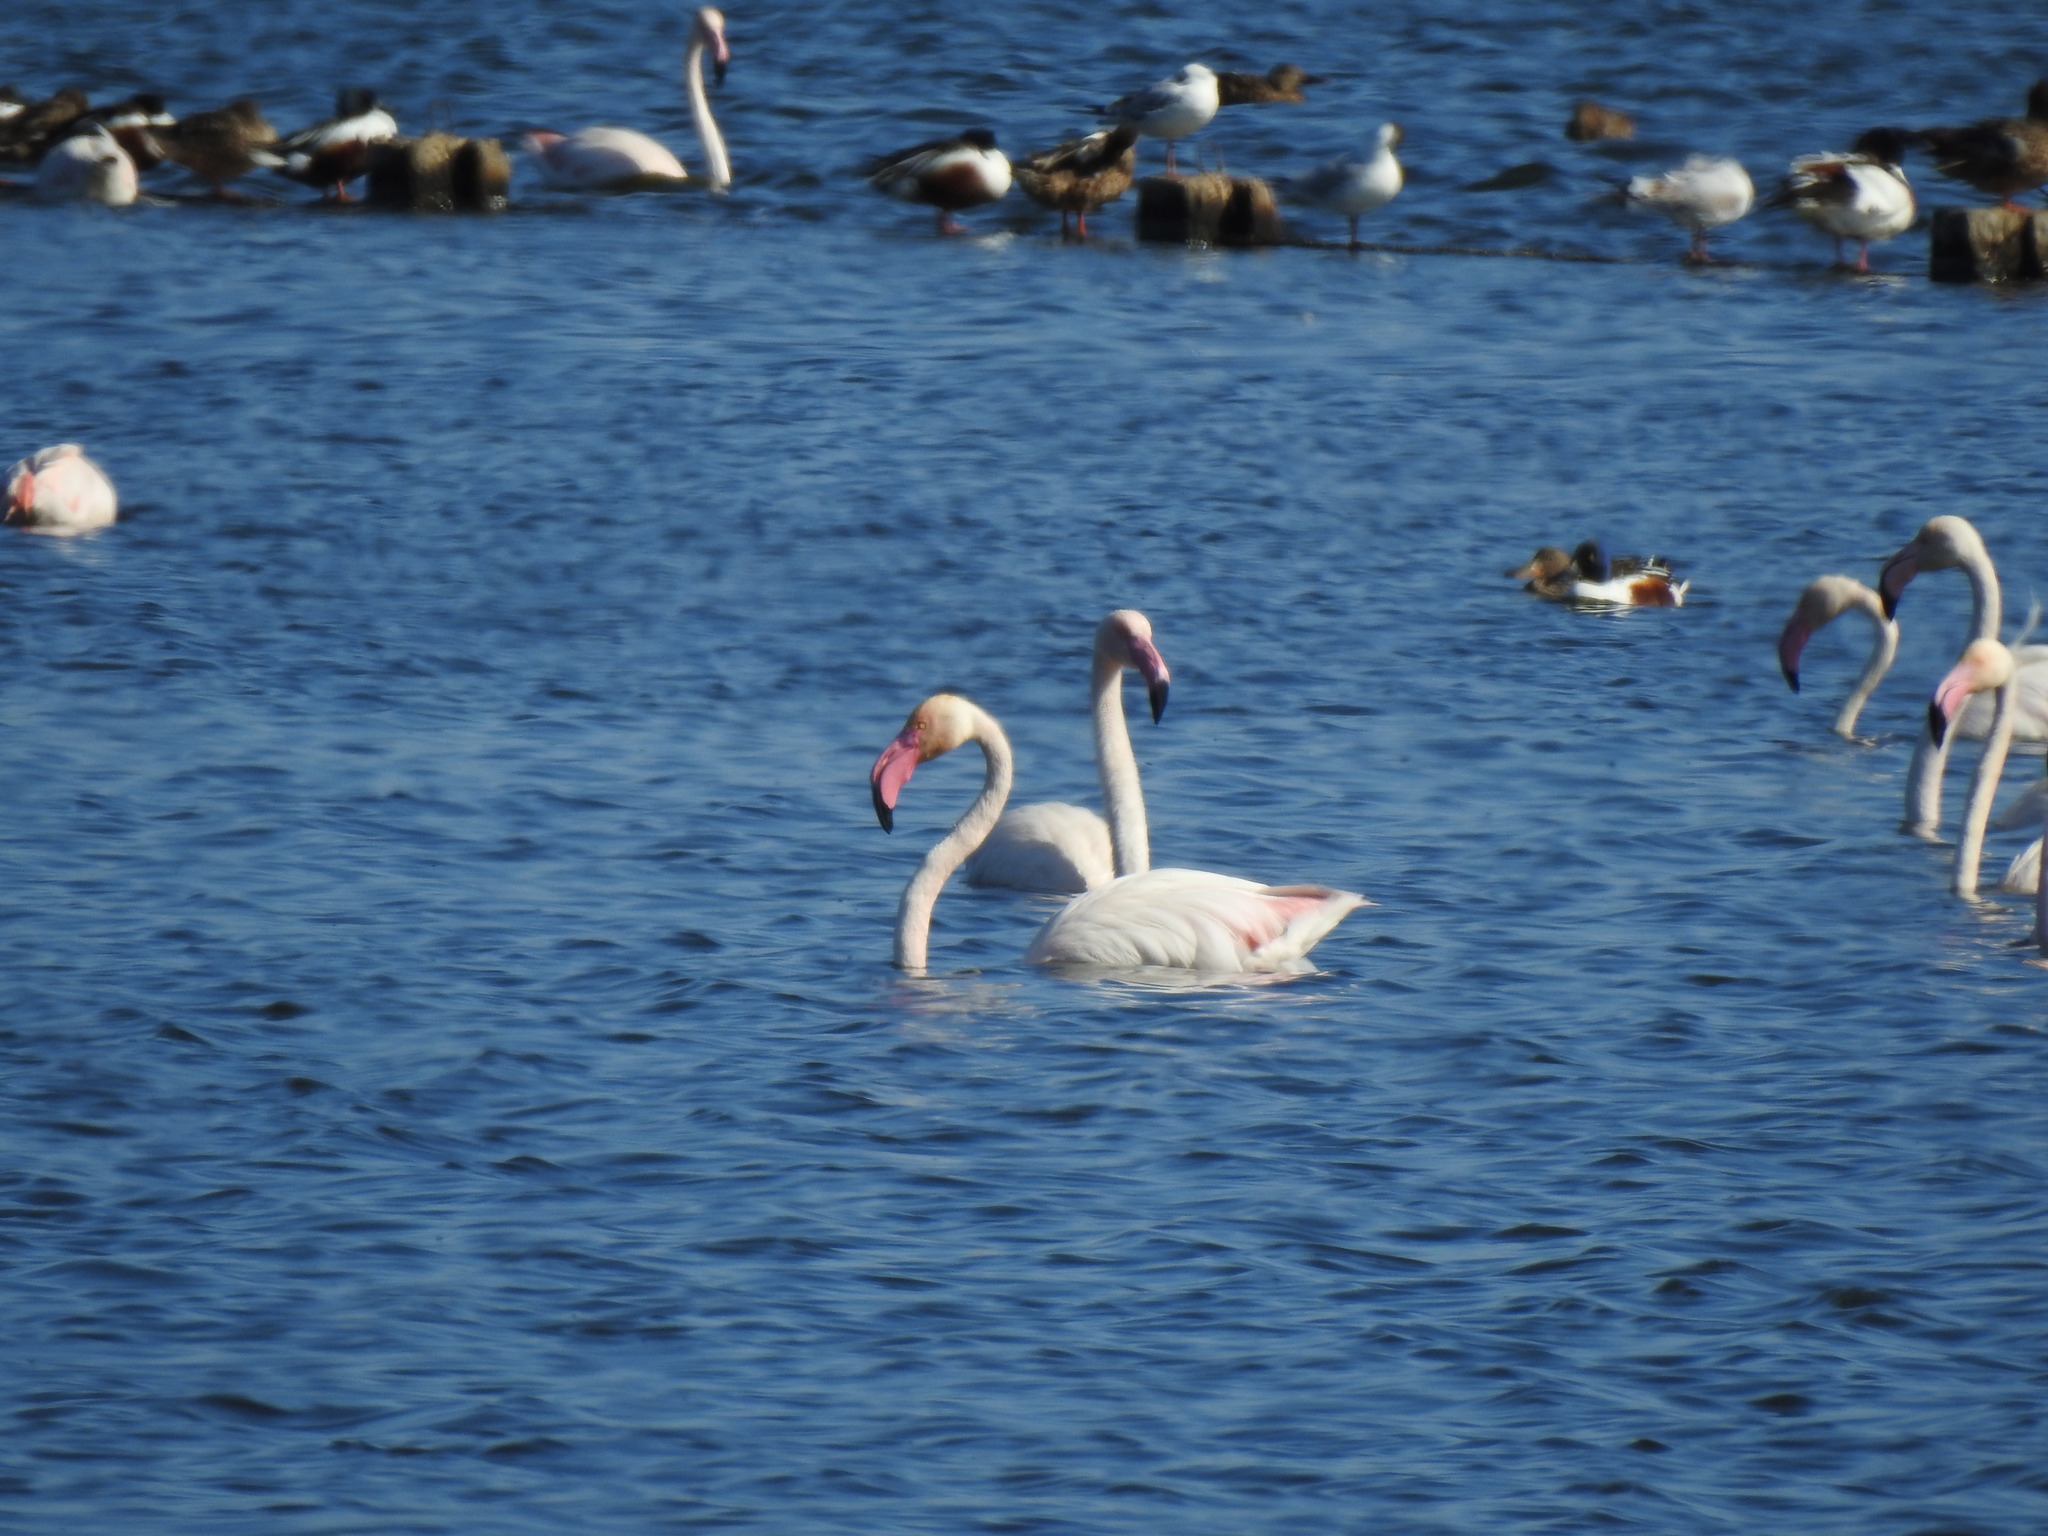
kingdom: Animalia
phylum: Chordata
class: Aves
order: Phoenicopteriformes
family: Phoenicopteridae
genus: Phoenicopterus
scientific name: Phoenicopterus roseus
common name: Greater flamingo
